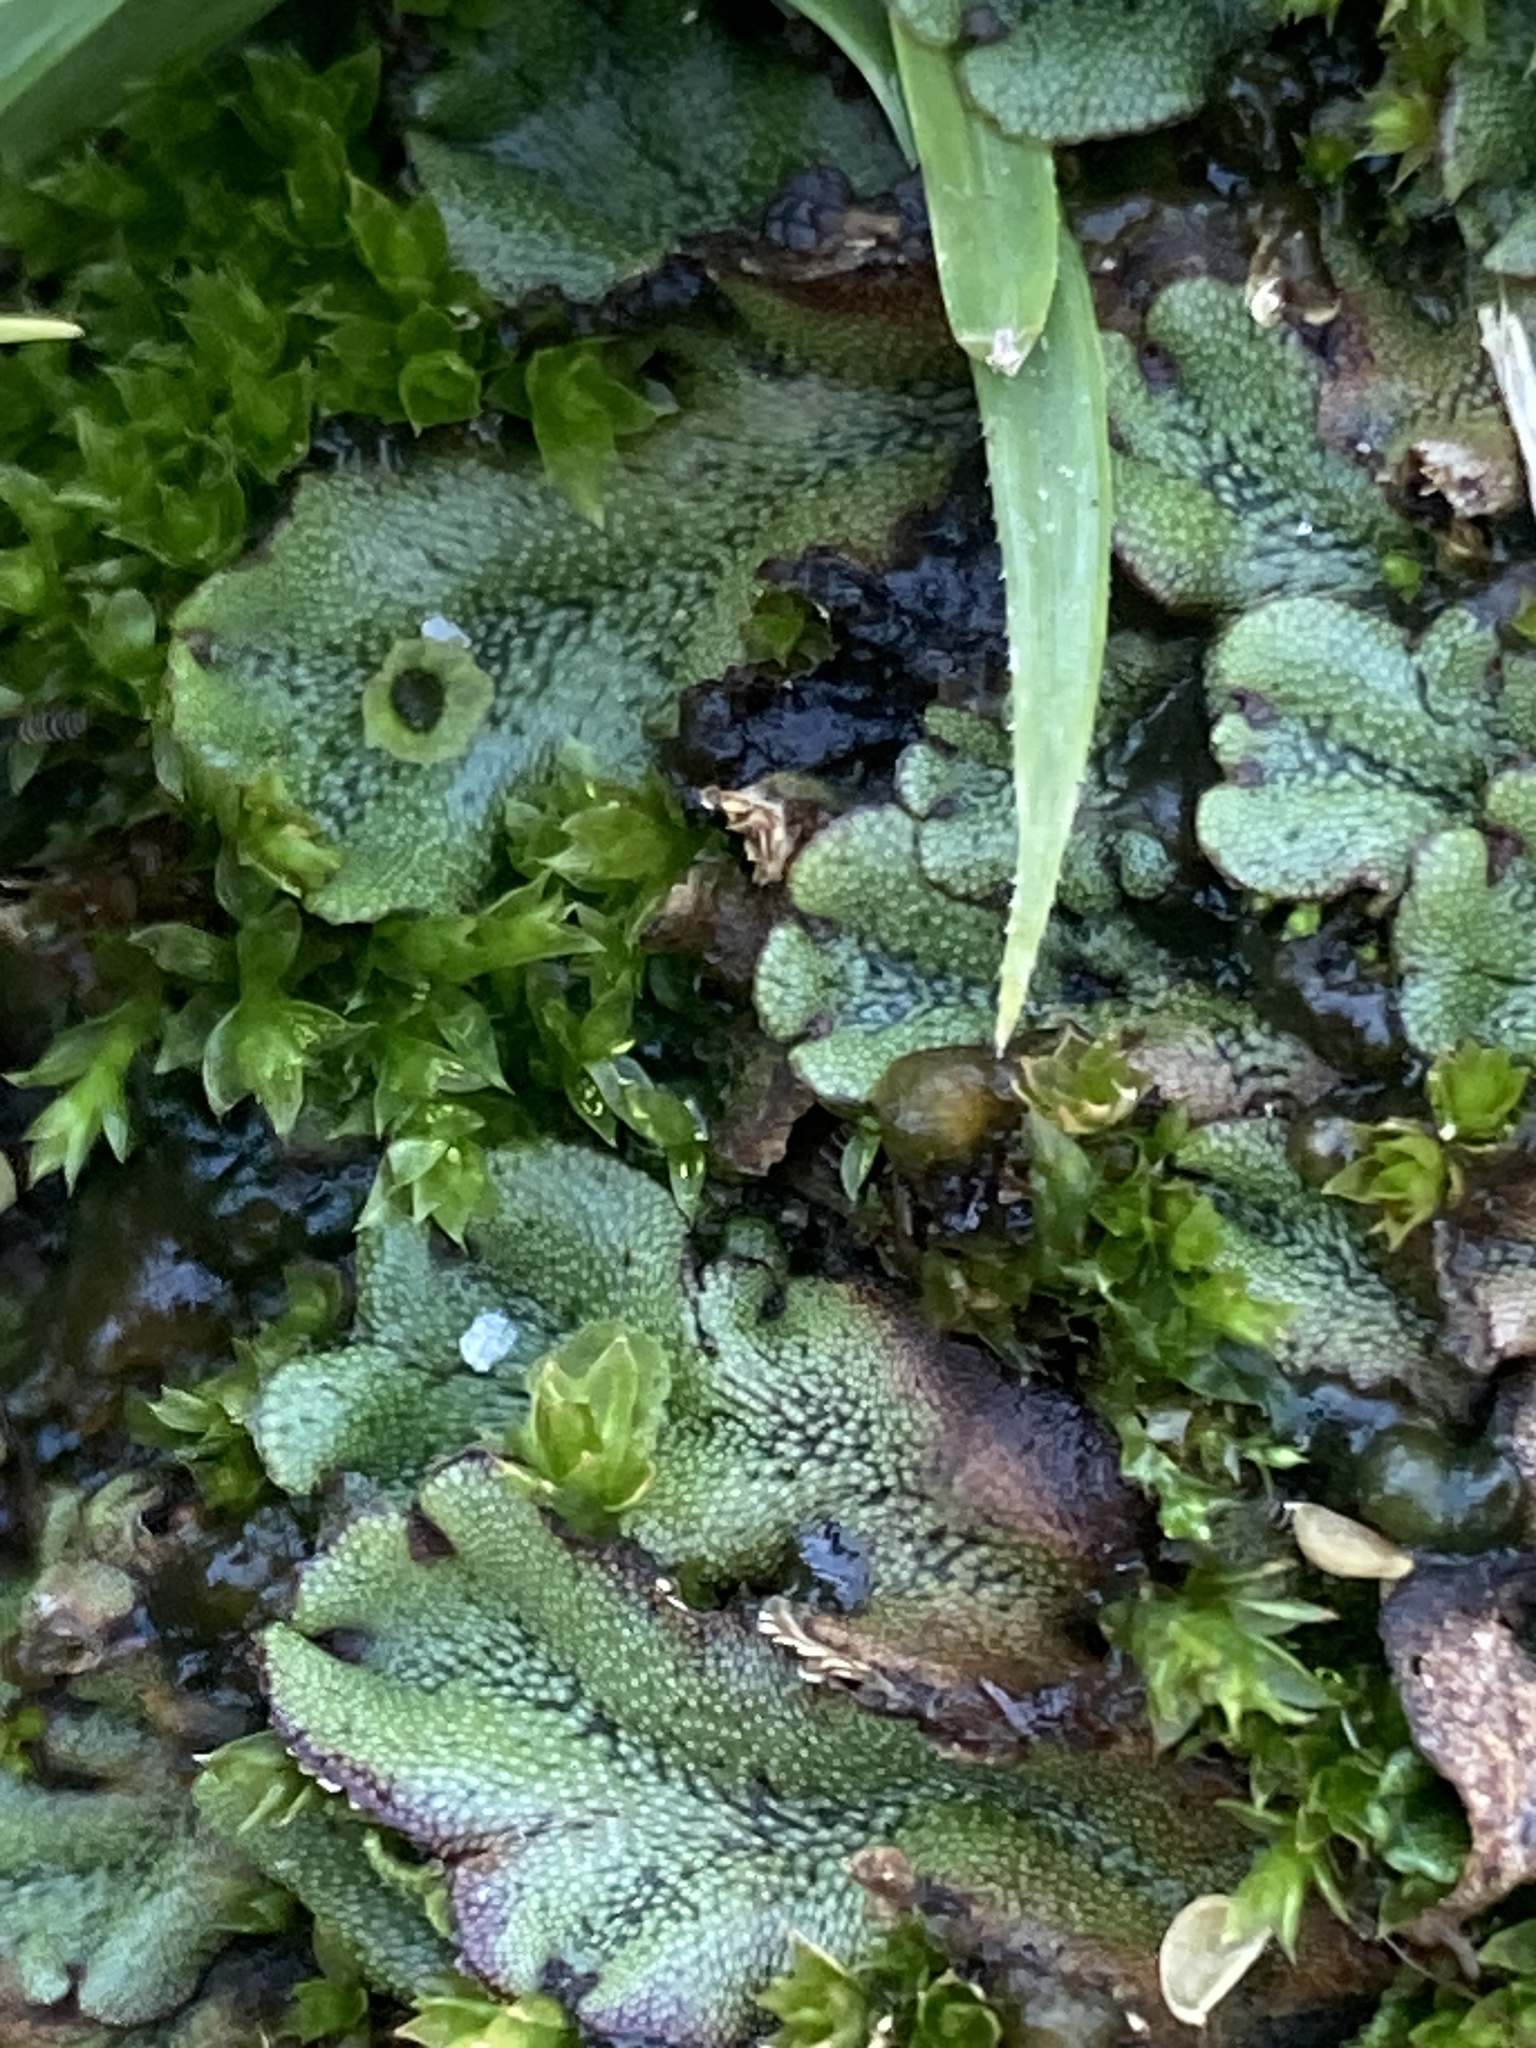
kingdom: Plantae
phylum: Marchantiophyta
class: Marchantiopsida
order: Marchantiales
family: Marchantiaceae
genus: Marchantia
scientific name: Marchantia polymorpha
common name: Common liverwort
